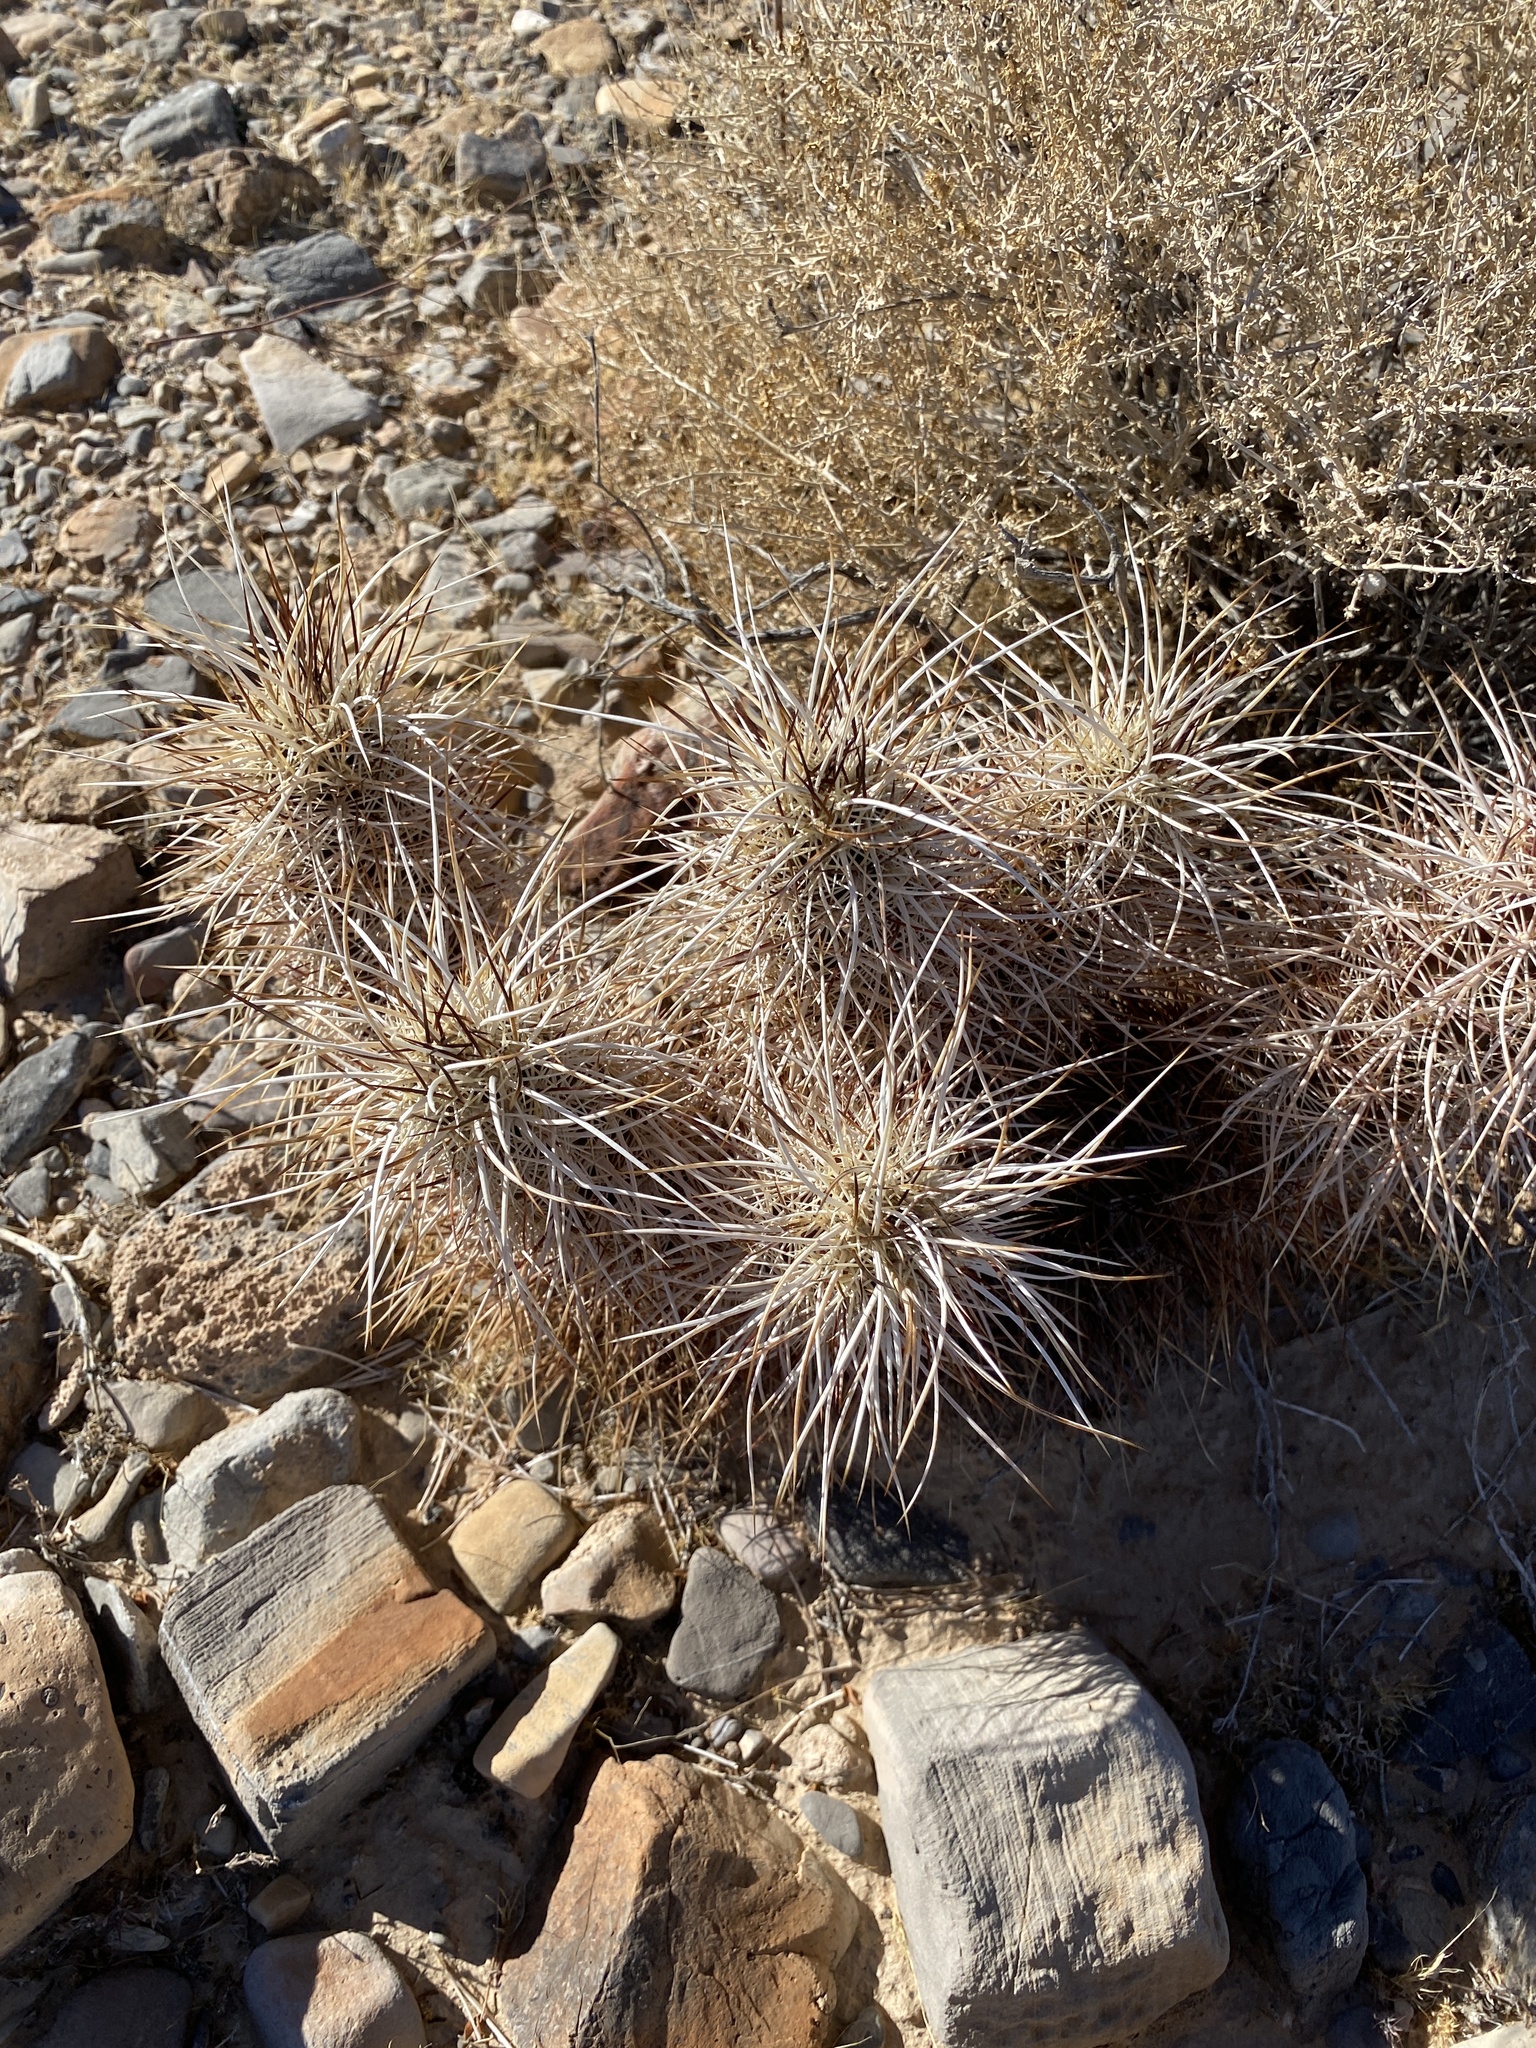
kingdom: Plantae
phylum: Tracheophyta
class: Magnoliopsida
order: Caryophyllales
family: Cactaceae
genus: Echinocereus
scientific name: Echinocereus engelmannii
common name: Engelmann's hedgehog cactus
